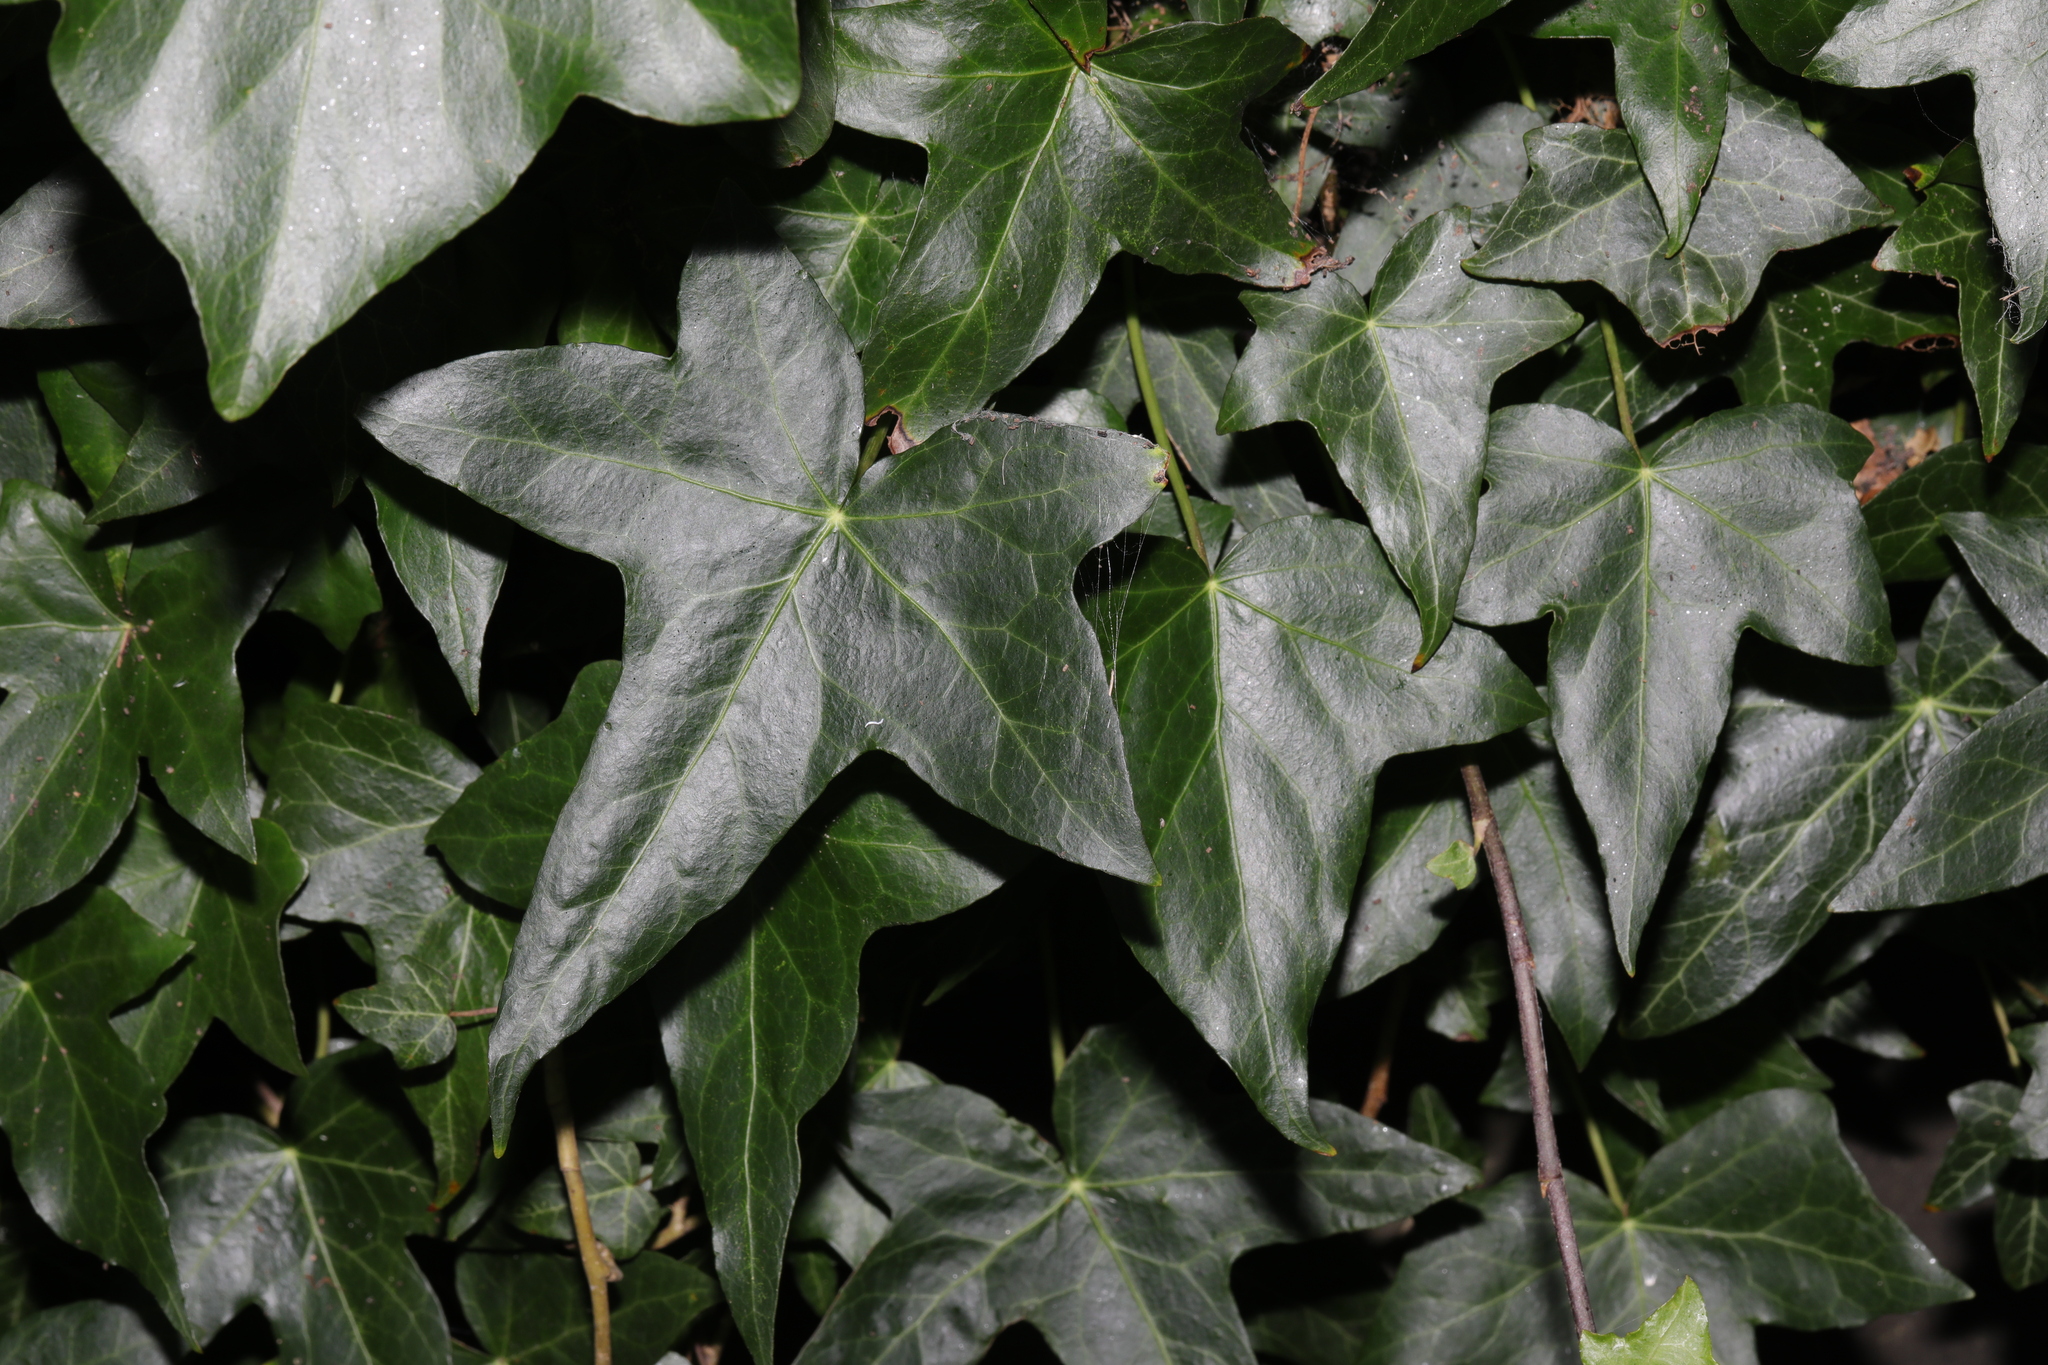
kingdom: Plantae
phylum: Tracheophyta
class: Magnoliopsida
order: Apiales
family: Araliaceae
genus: Hedera
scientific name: Hedera helix
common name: Ivy
